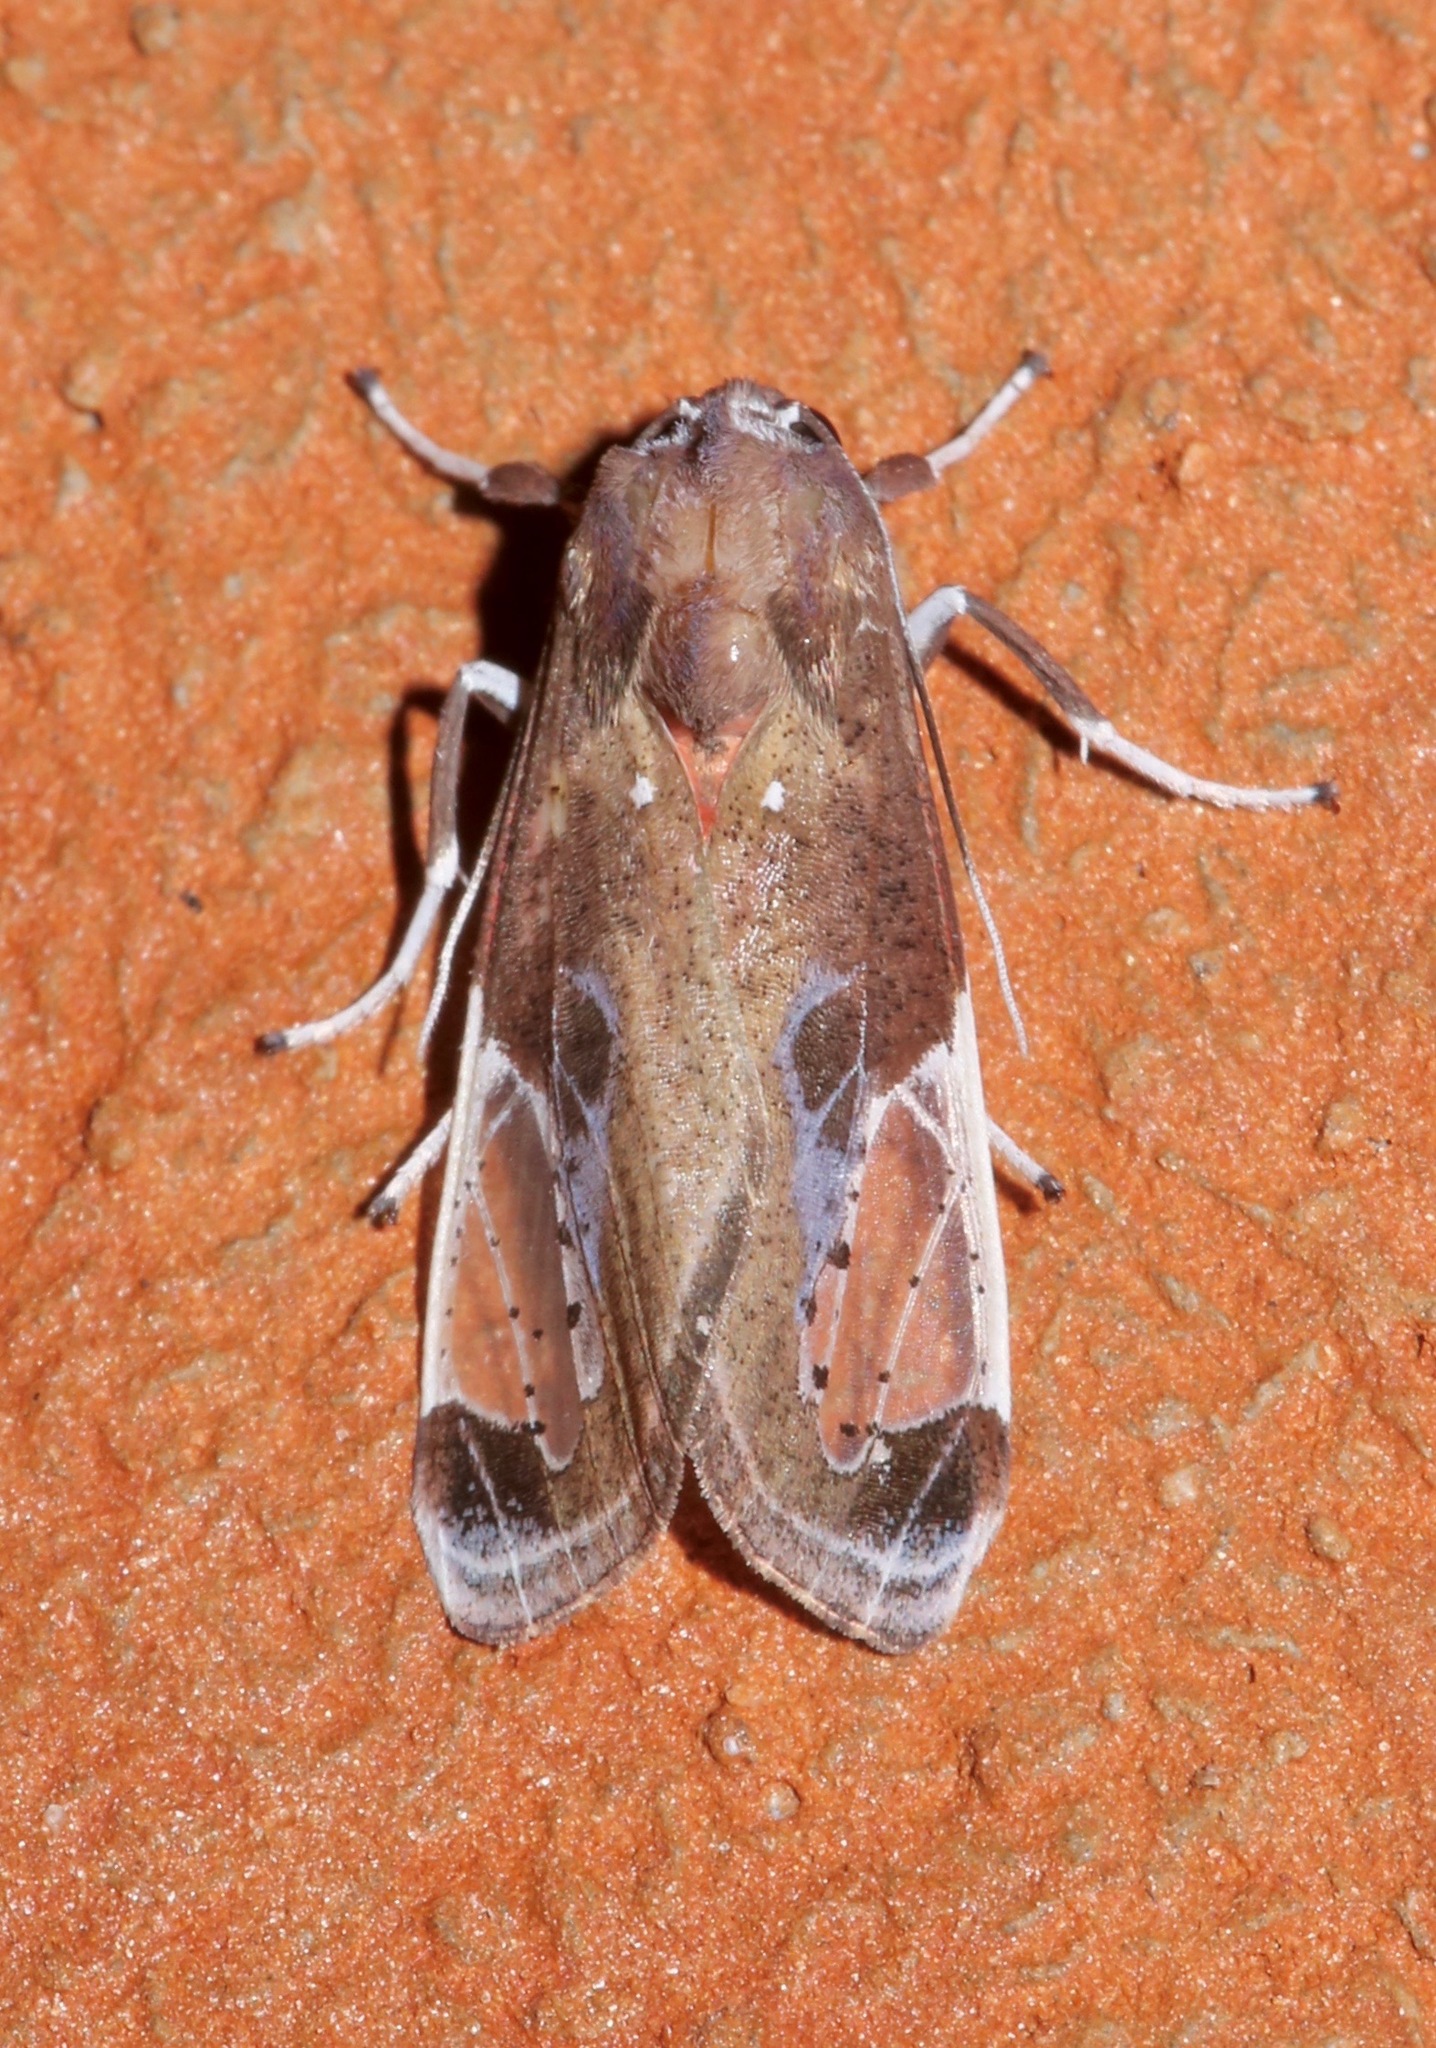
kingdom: Animalia
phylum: Arthropoda
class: Insecta
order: Lepidoptera
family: Erebidae
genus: Bertholdia
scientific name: Bertholdia albipuncta
